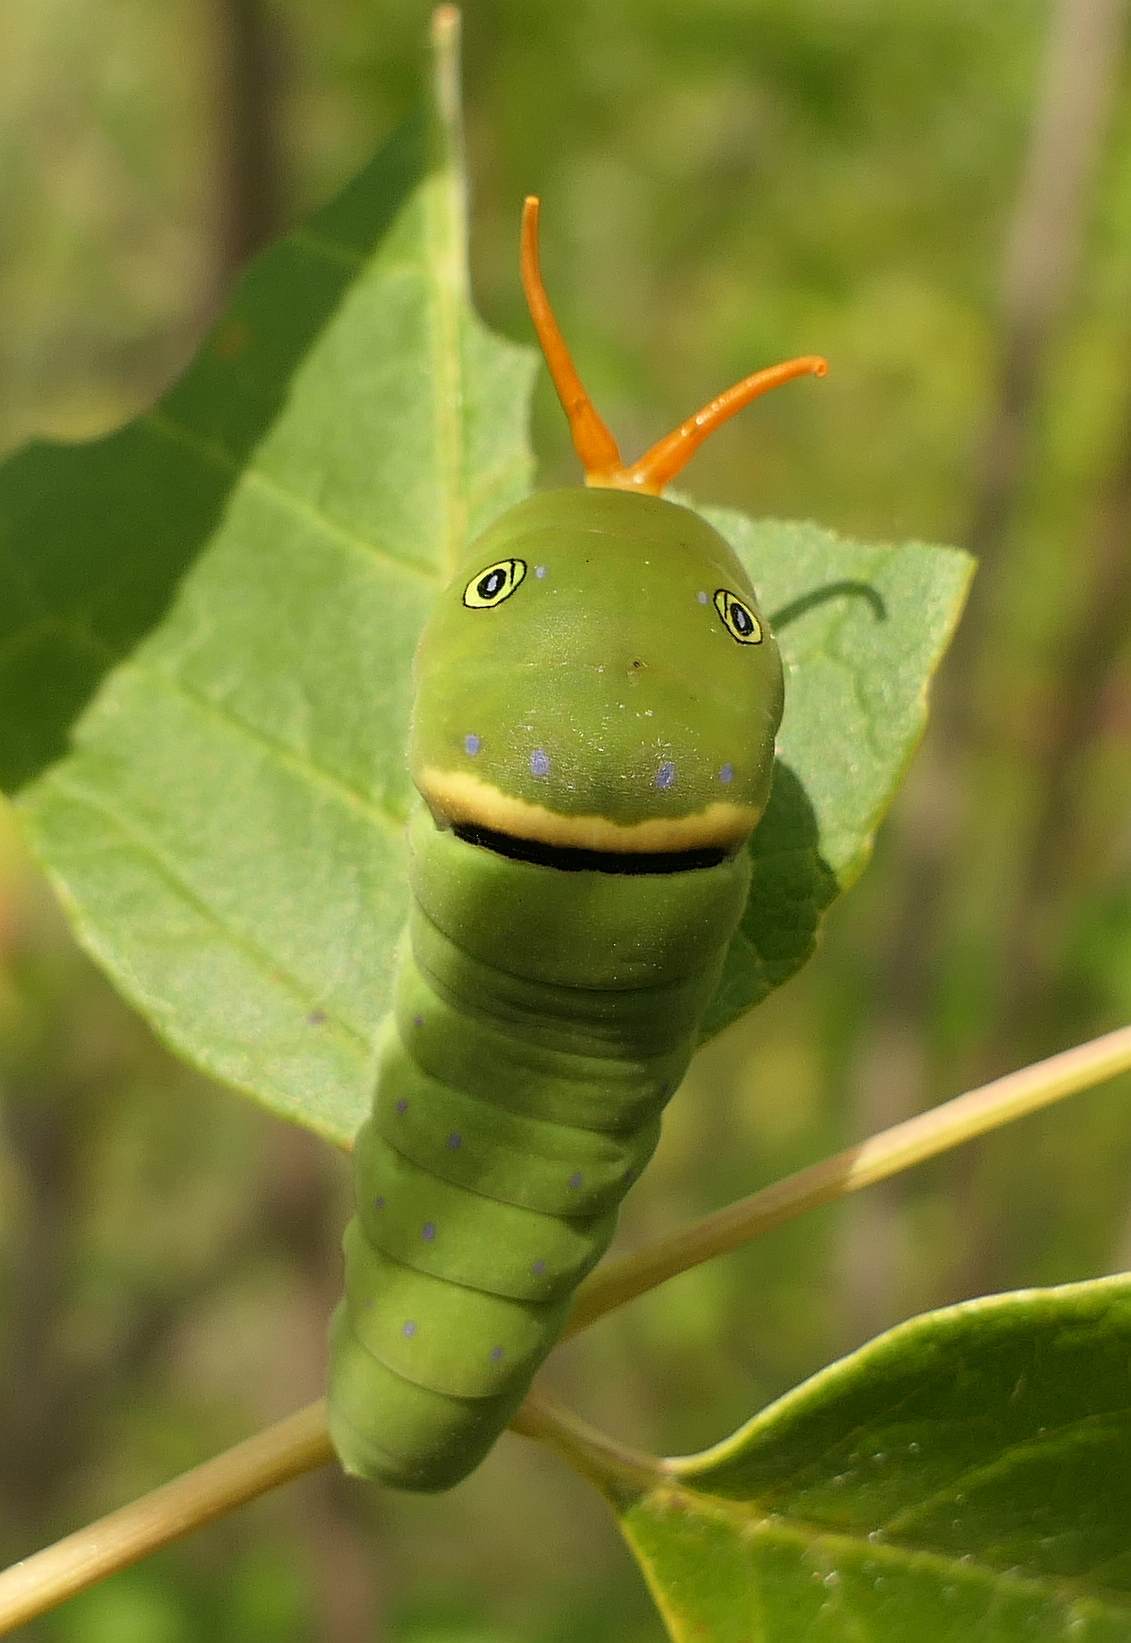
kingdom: Animalia
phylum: Arthropoda
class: Insecta
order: Lepidoptera
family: Papilionidae
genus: Pterourus
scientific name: Pterourus
